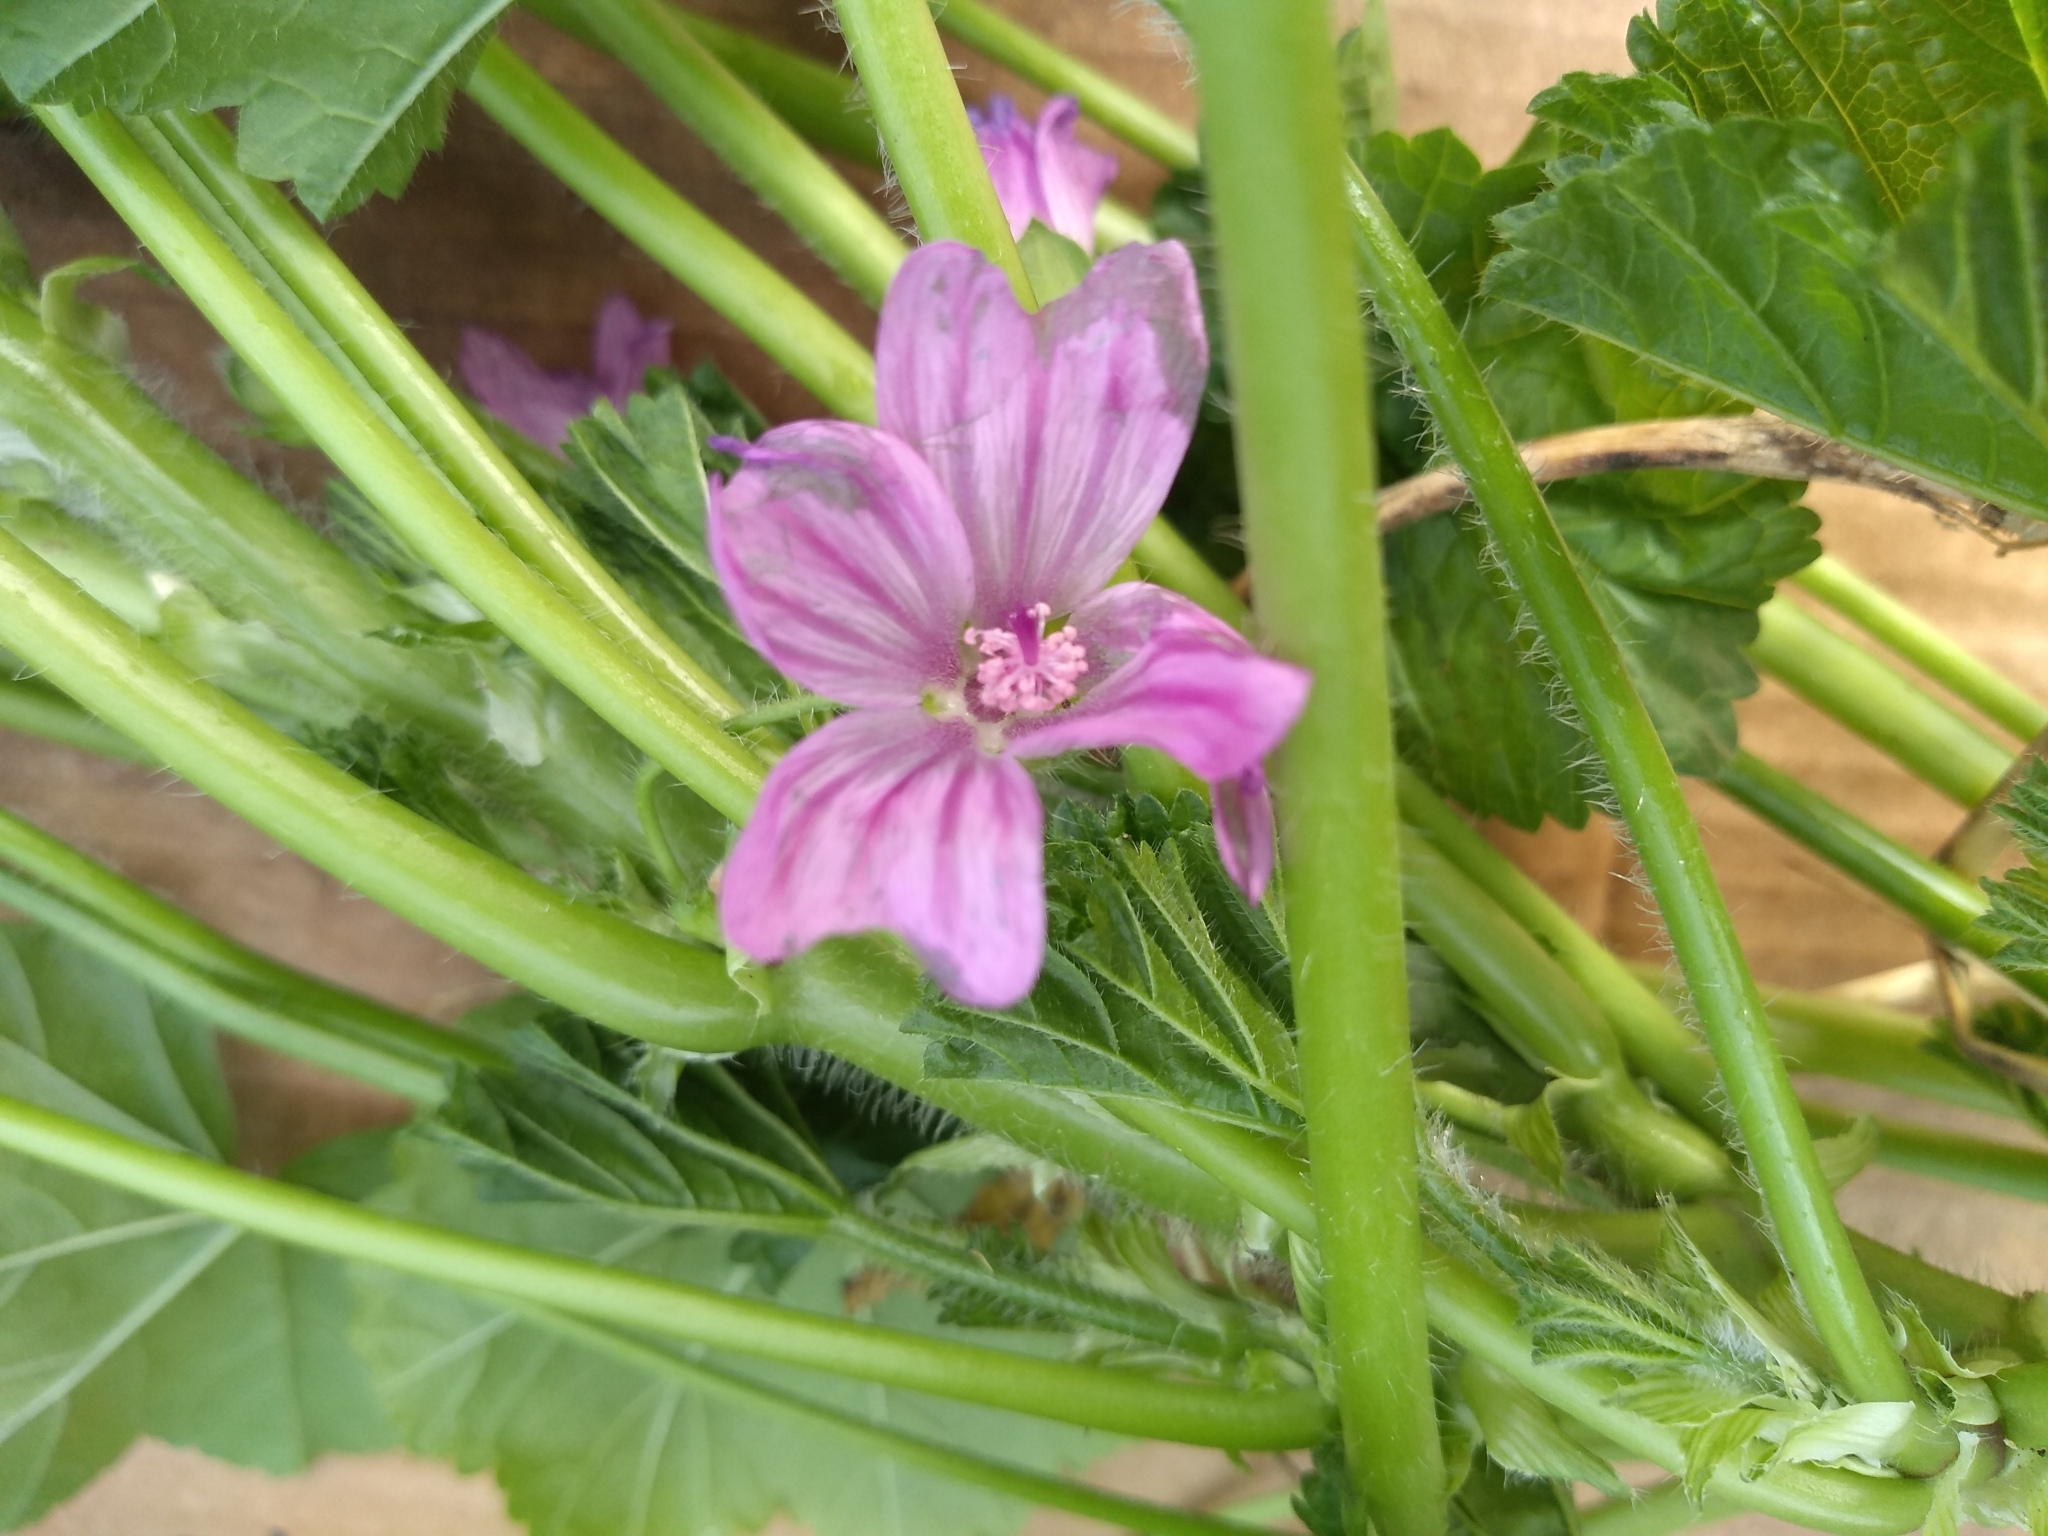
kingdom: Plantae
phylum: Tracheophyta
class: Magnoliopsida
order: Malvales
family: Malvaceae
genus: Malva
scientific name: Malva sylvestris
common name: Common mallow
